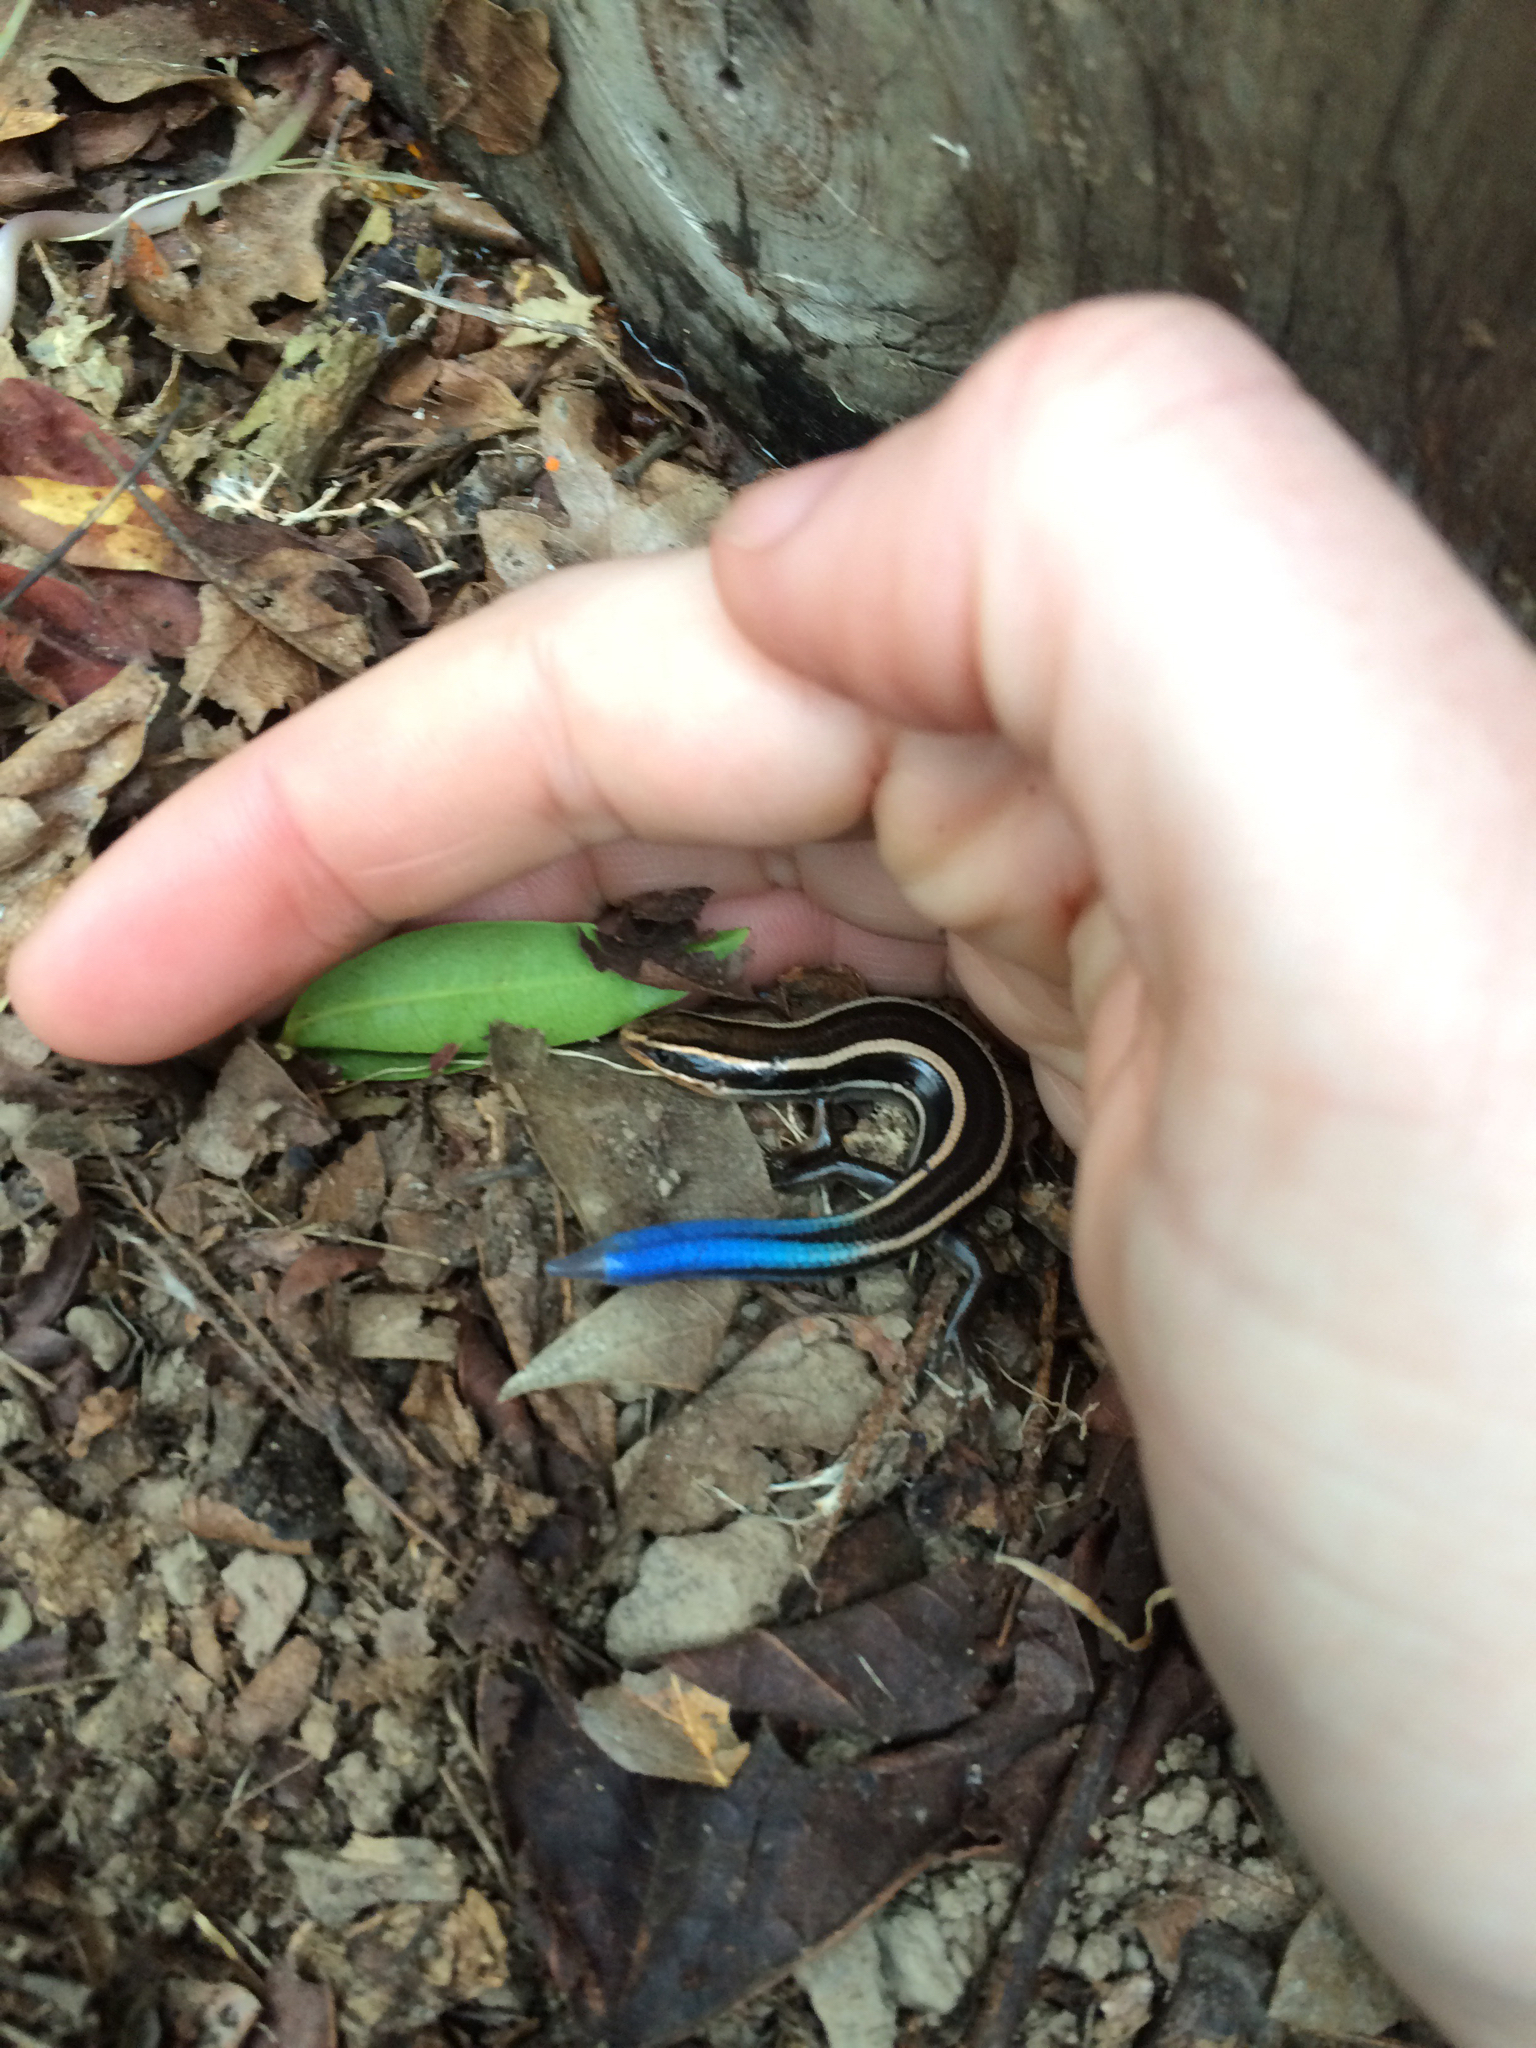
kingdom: Animalia
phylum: Chordata
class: Squamata
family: Scincidae
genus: Plestiodon
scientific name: Plestiodon skiltonianus
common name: Coronado island skink [interparietalis]
